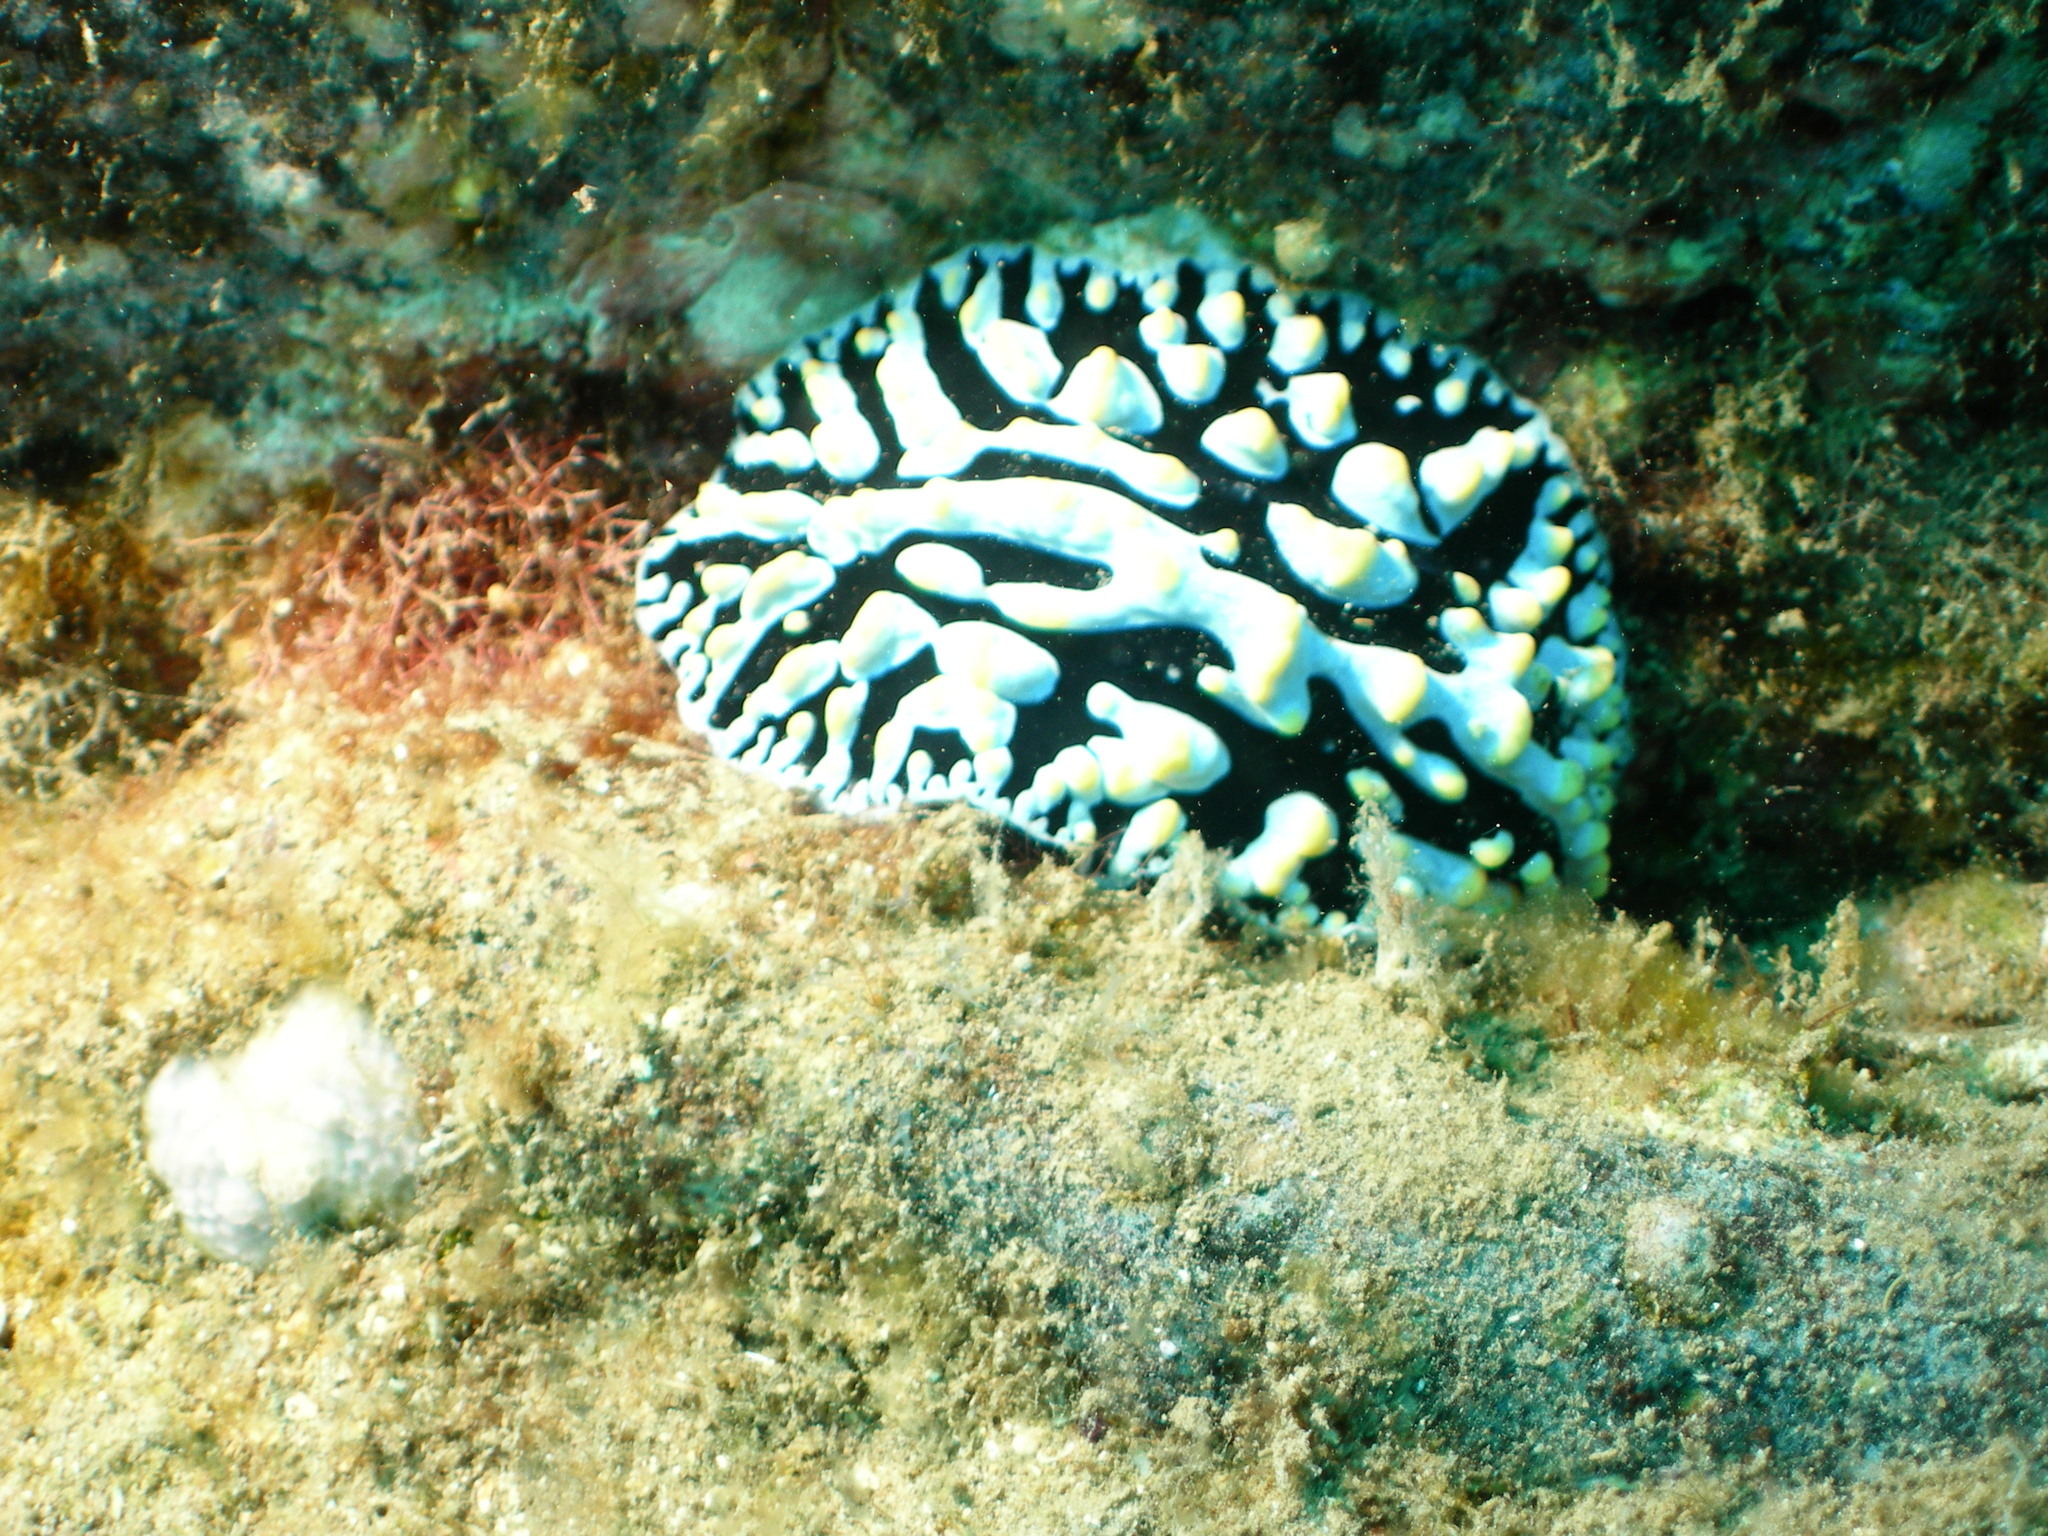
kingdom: Animalia
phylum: Mollusca
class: Gastropoda
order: Nudibranchia
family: Phyllidiidae
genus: Phyllidia
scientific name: Phyllidia varicosa
